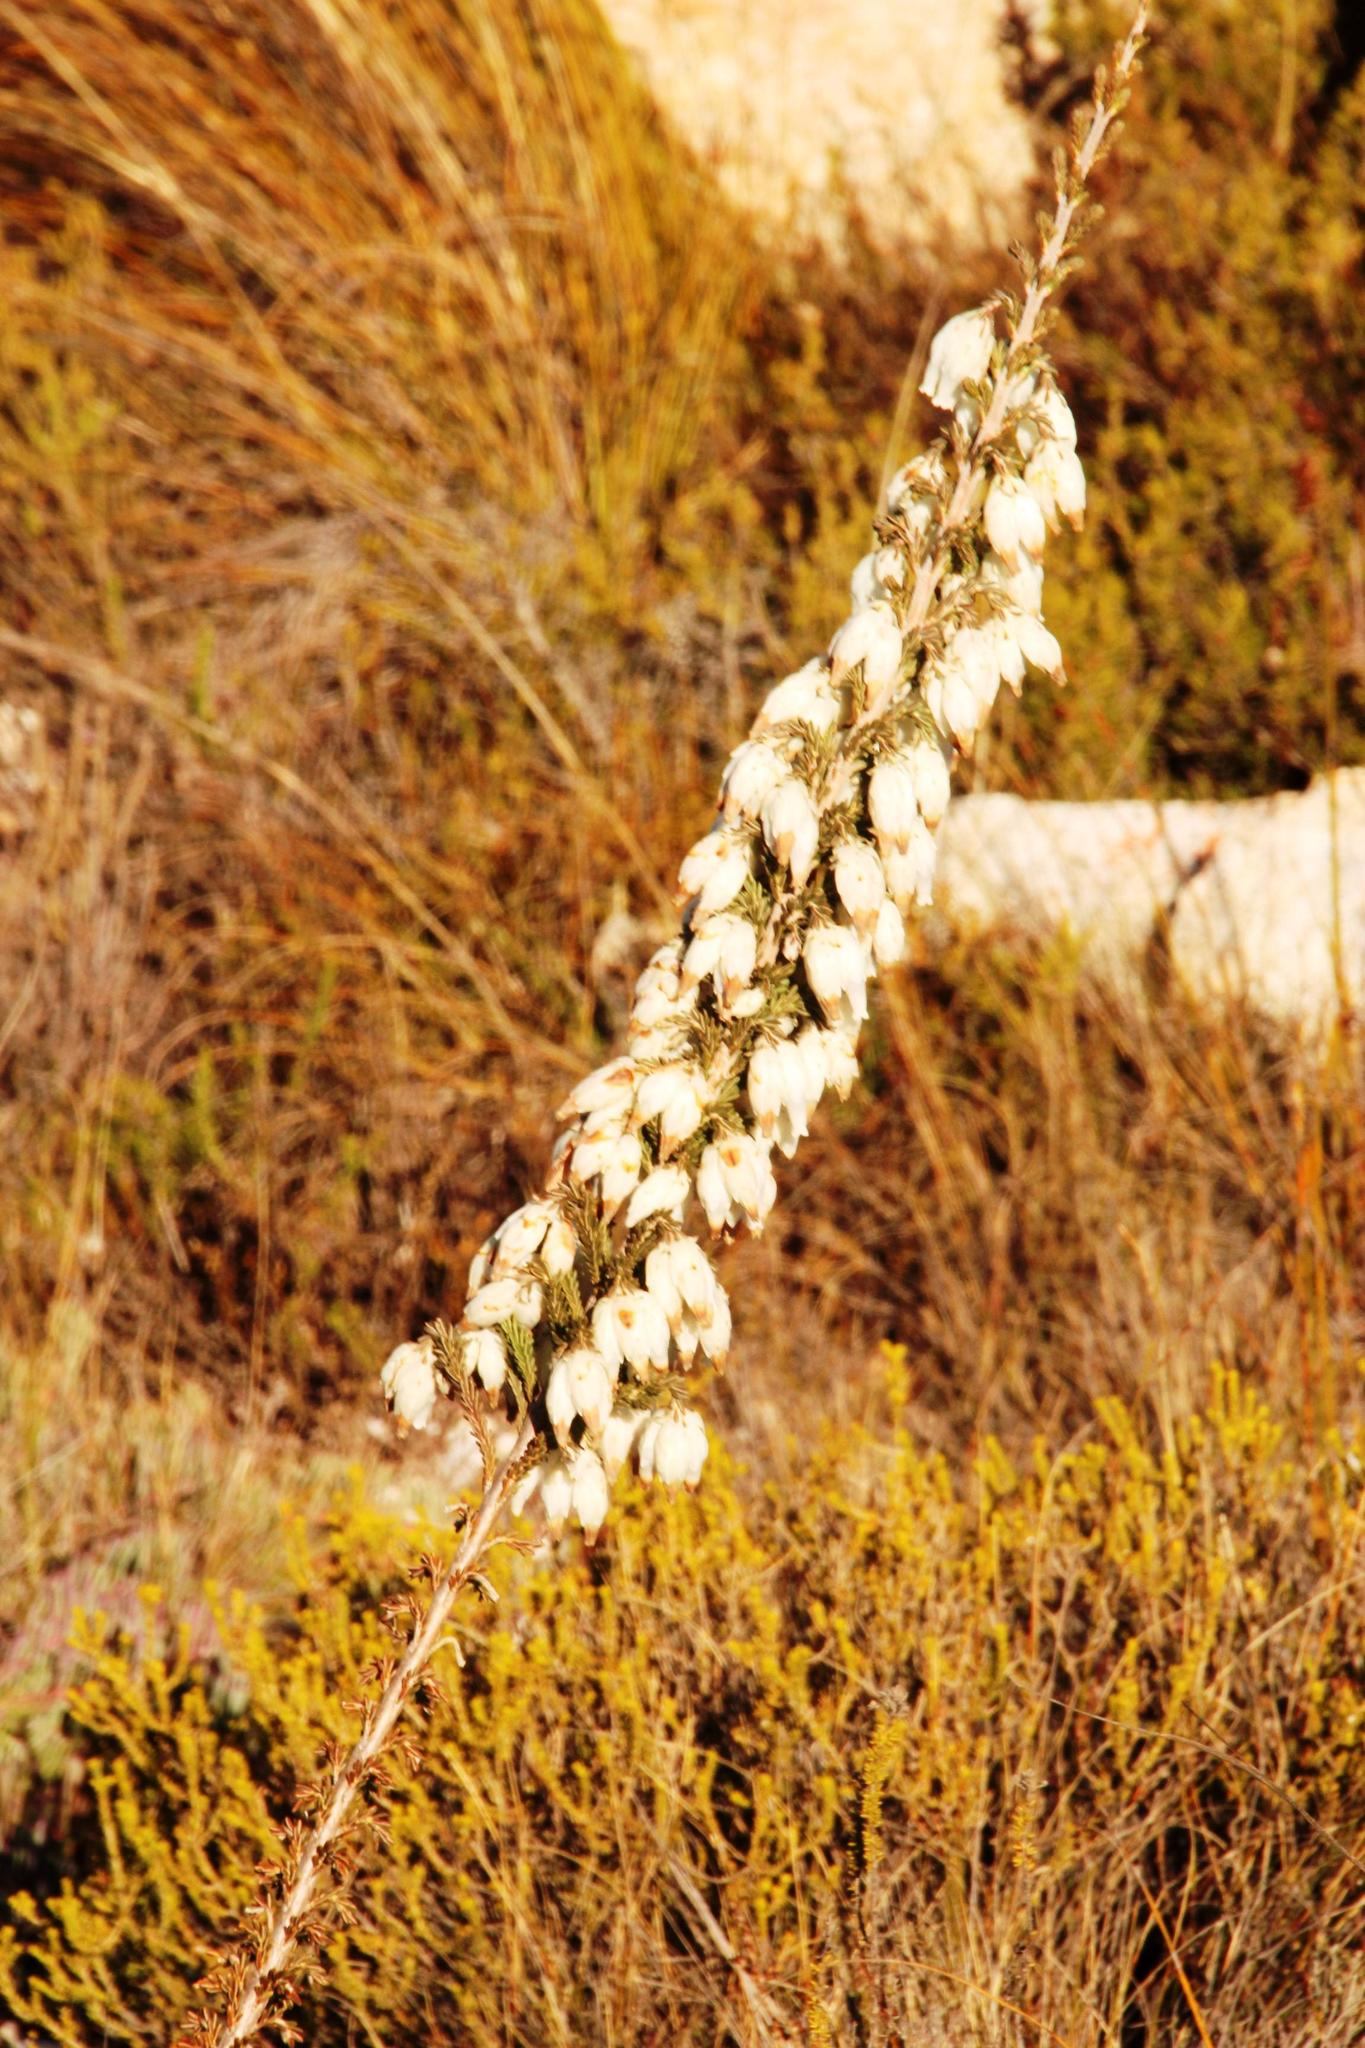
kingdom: Plantae
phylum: Tracheophyta
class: Magnoliopsida
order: Ericales
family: Ericaceae
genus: Erica
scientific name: Erica monsoniana
